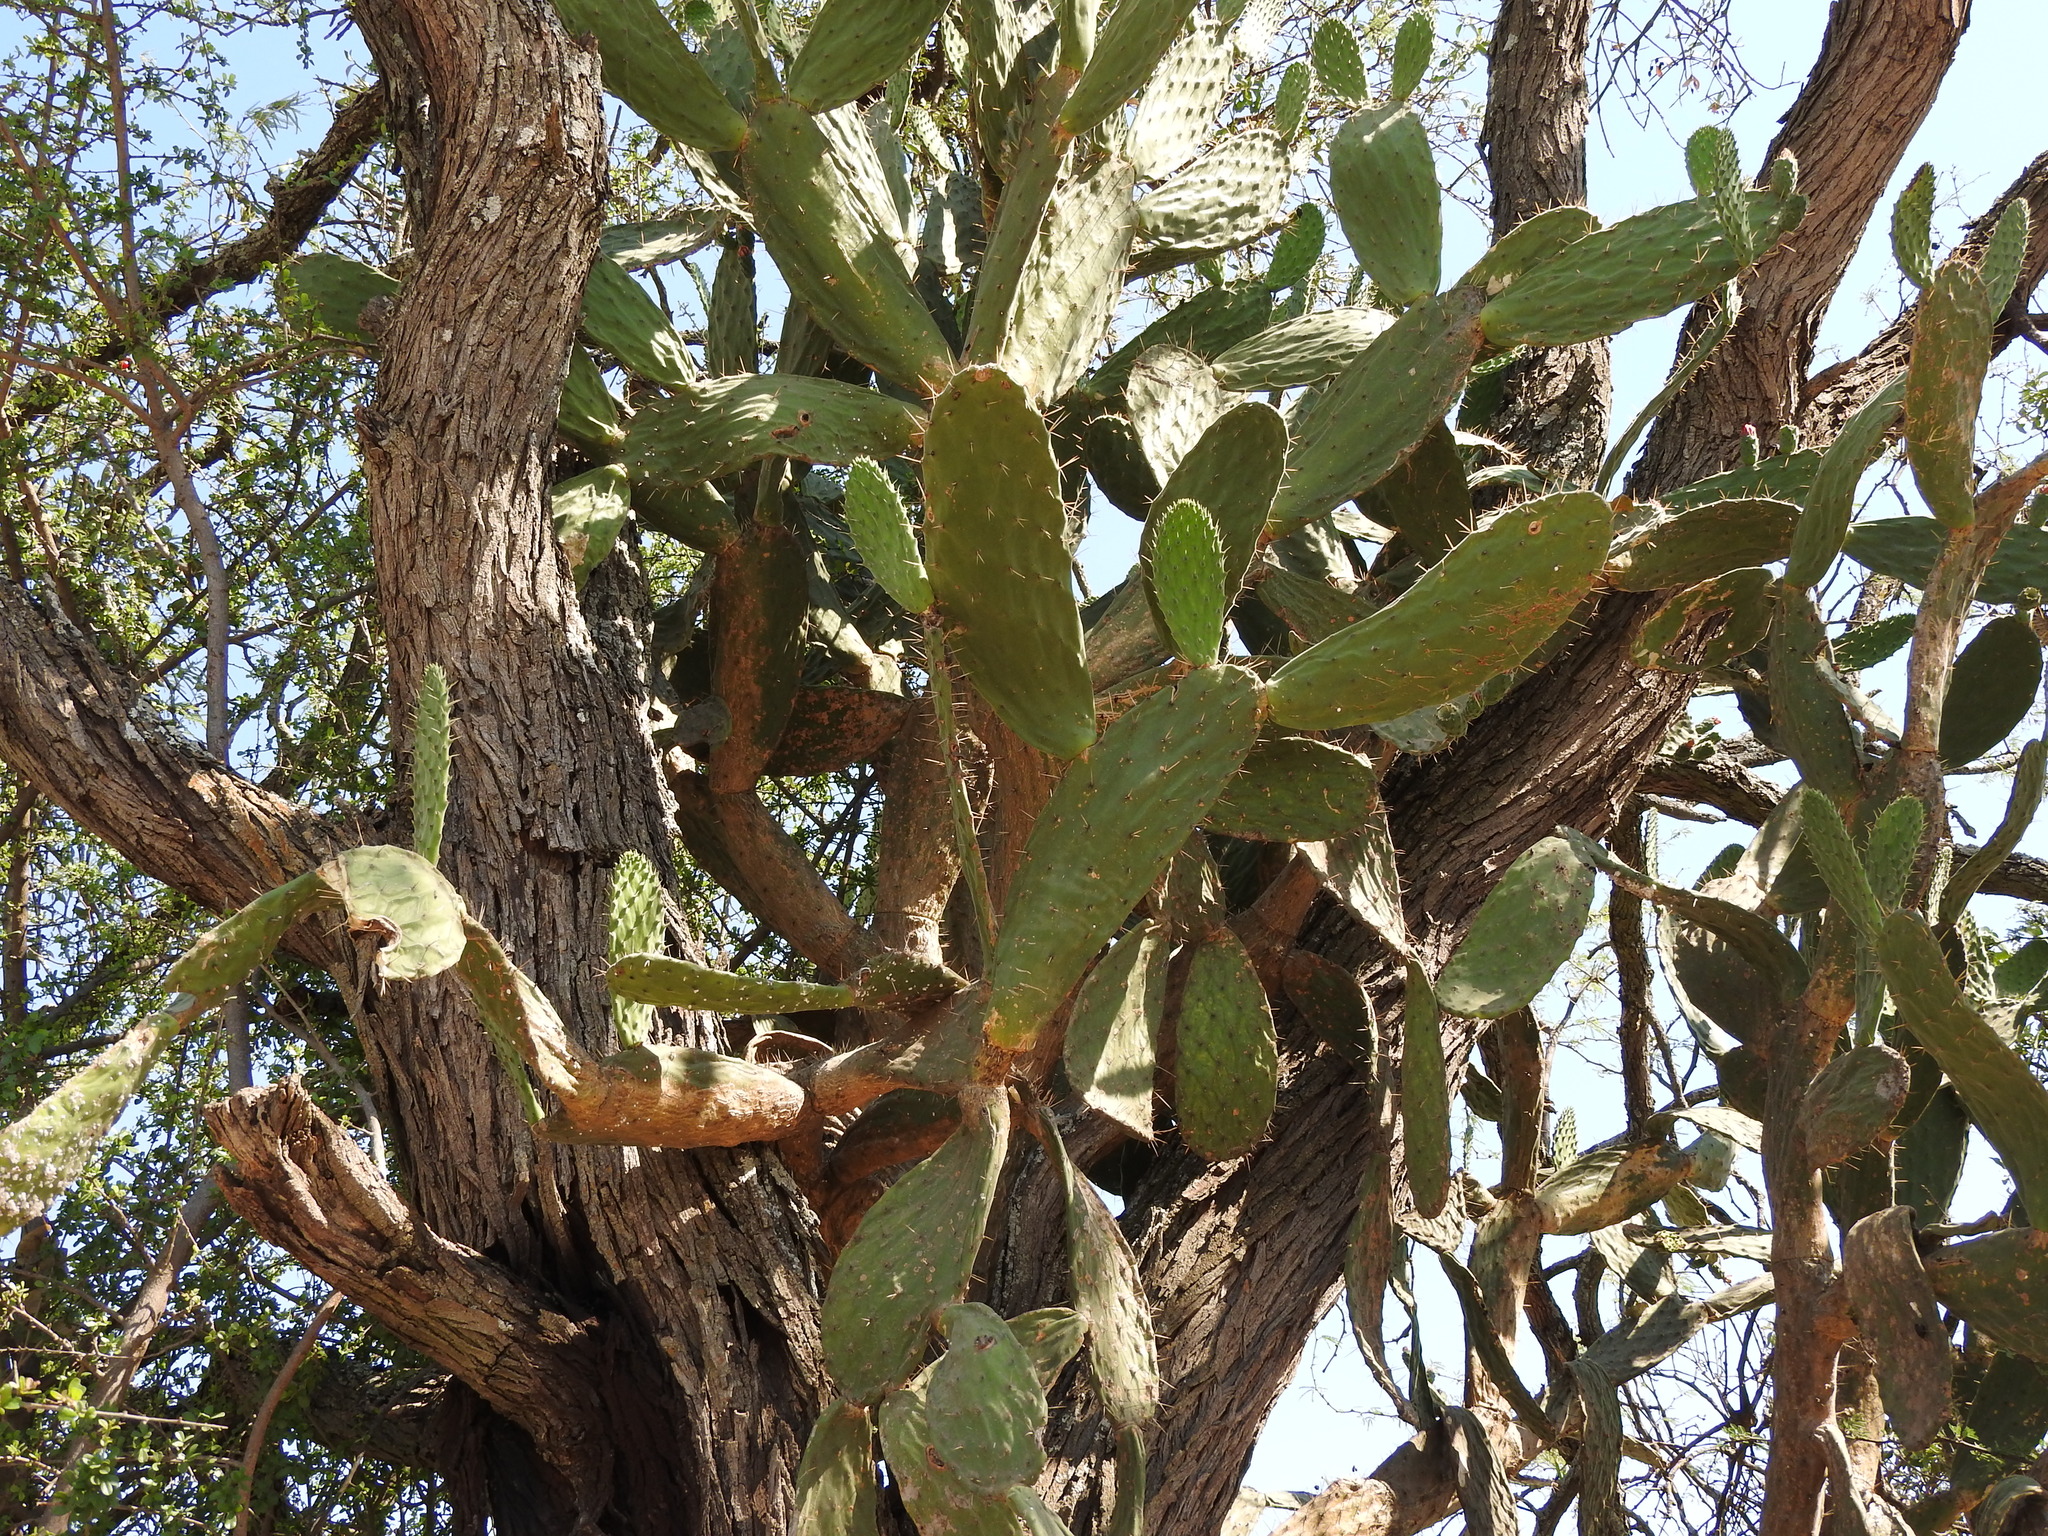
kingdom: Plantae
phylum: Tracheophyta
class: Magnoliopsida
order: Caryophyllales
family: Cactaceae
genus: Opuntia
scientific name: Opuntia jaliscana
